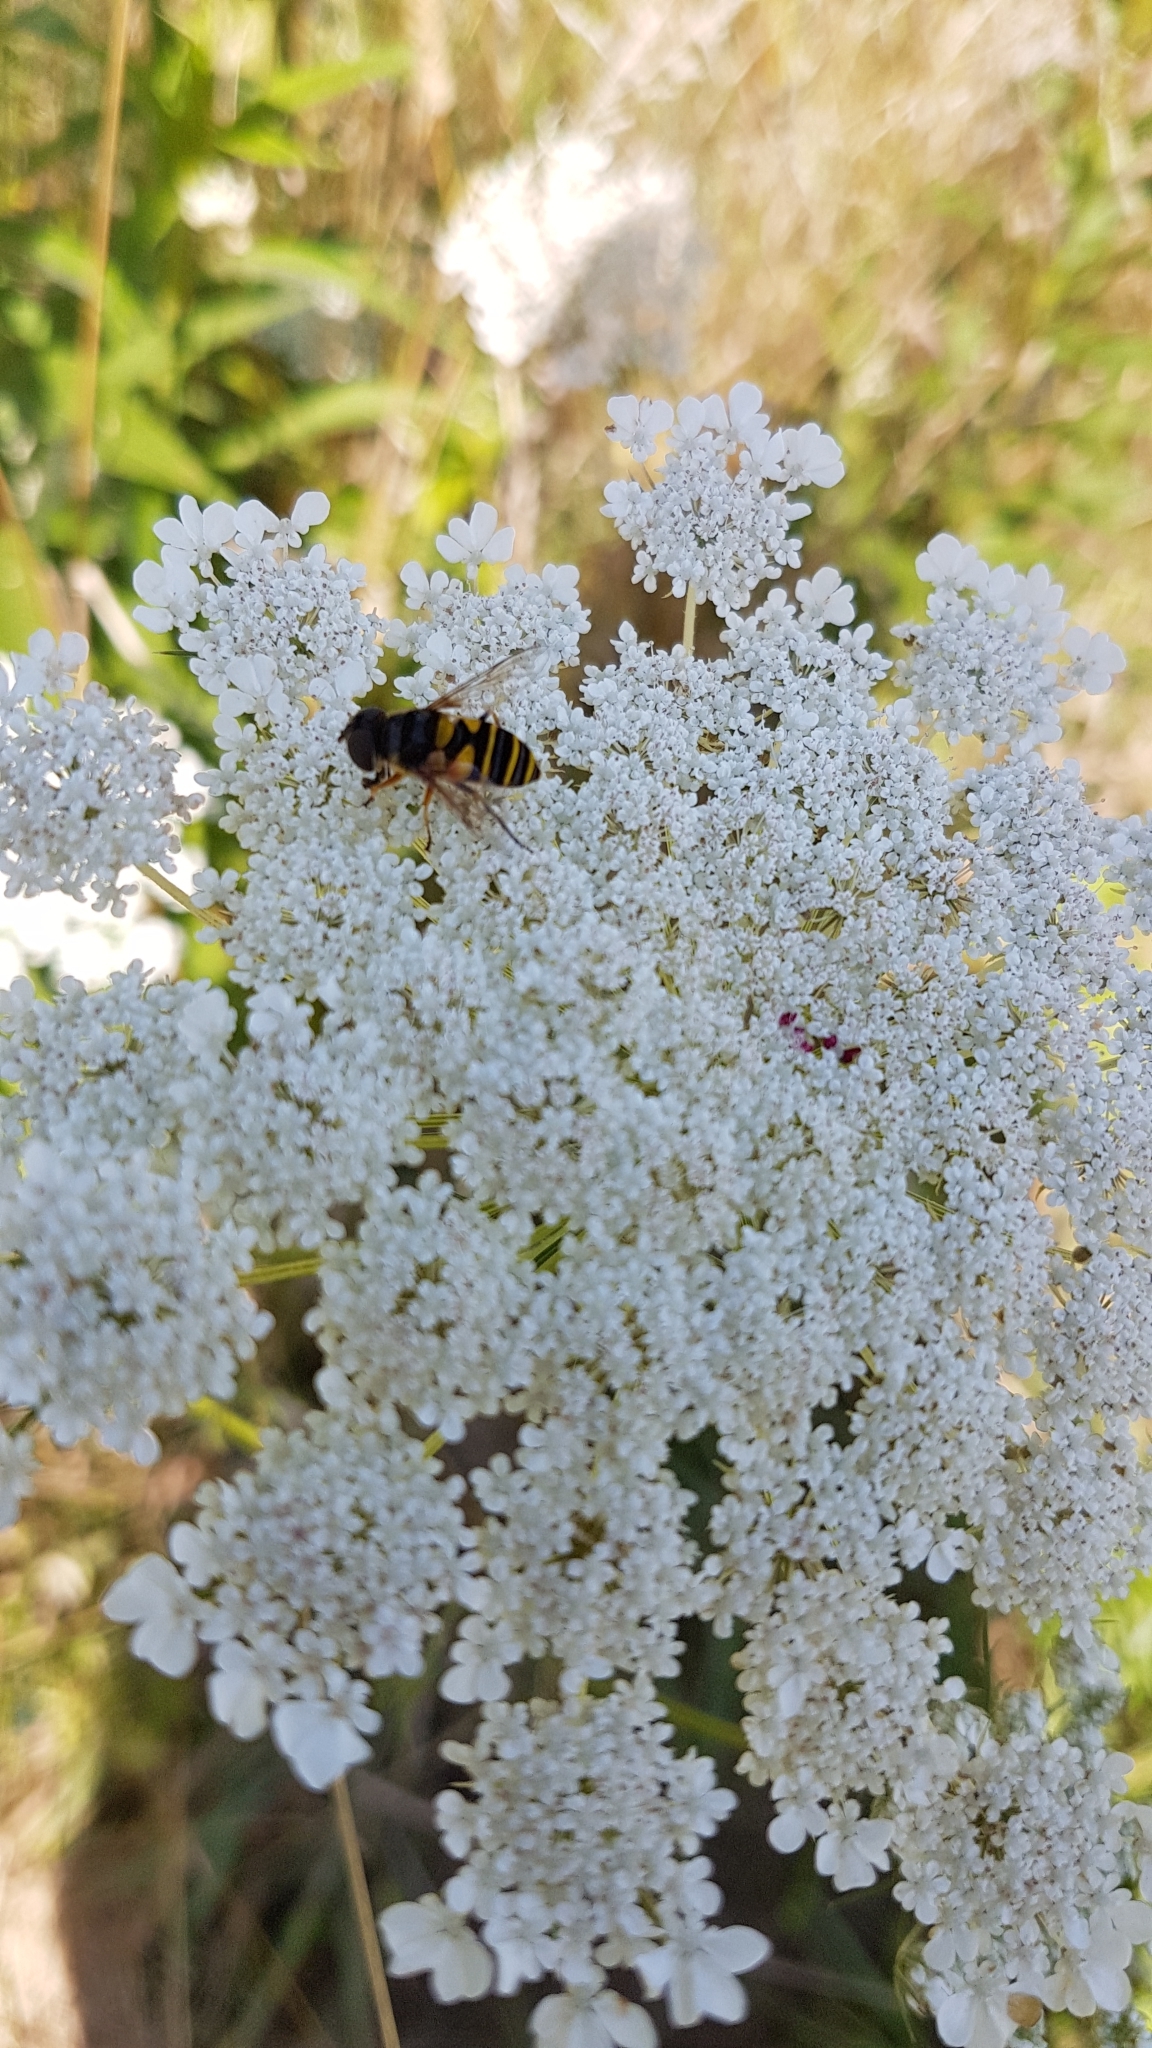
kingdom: Animalia
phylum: Arthropoda
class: Insecta
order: Diptera
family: Syrphidae
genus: Eristalis
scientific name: Eristalis transversa
